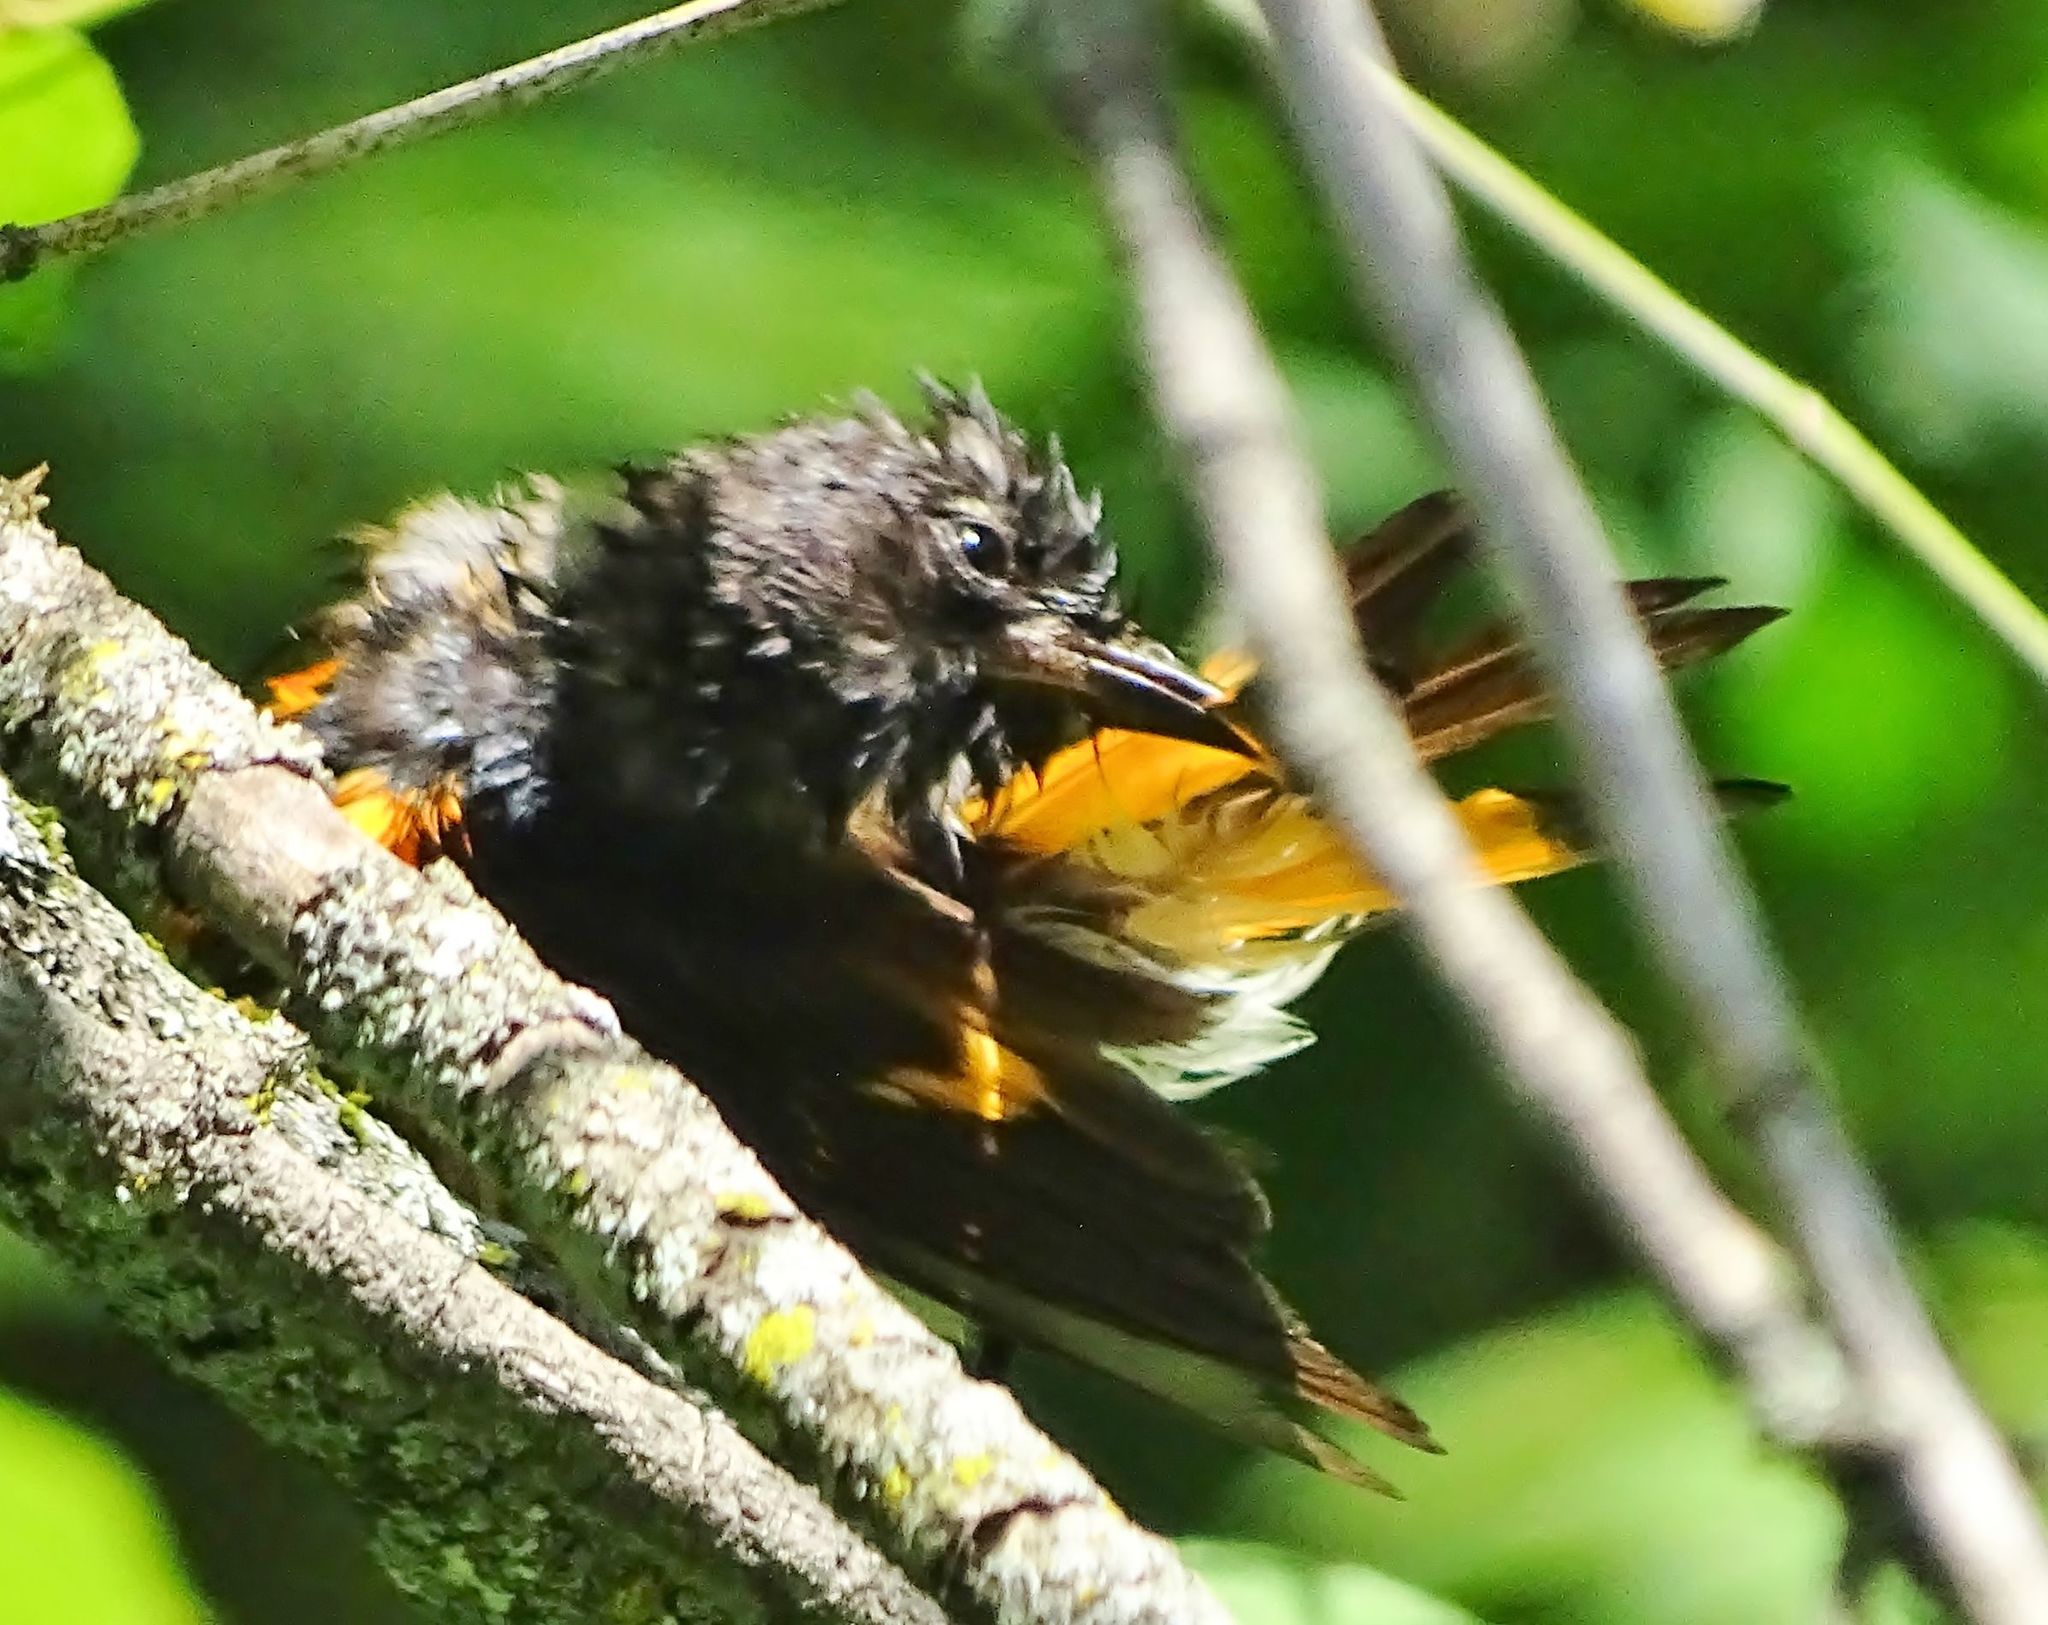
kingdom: Animalia
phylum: Chordata
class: Aves
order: Passeriformes
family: Parulidae
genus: Setophaga
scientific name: Setophaga ruticilla
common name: American redstart
